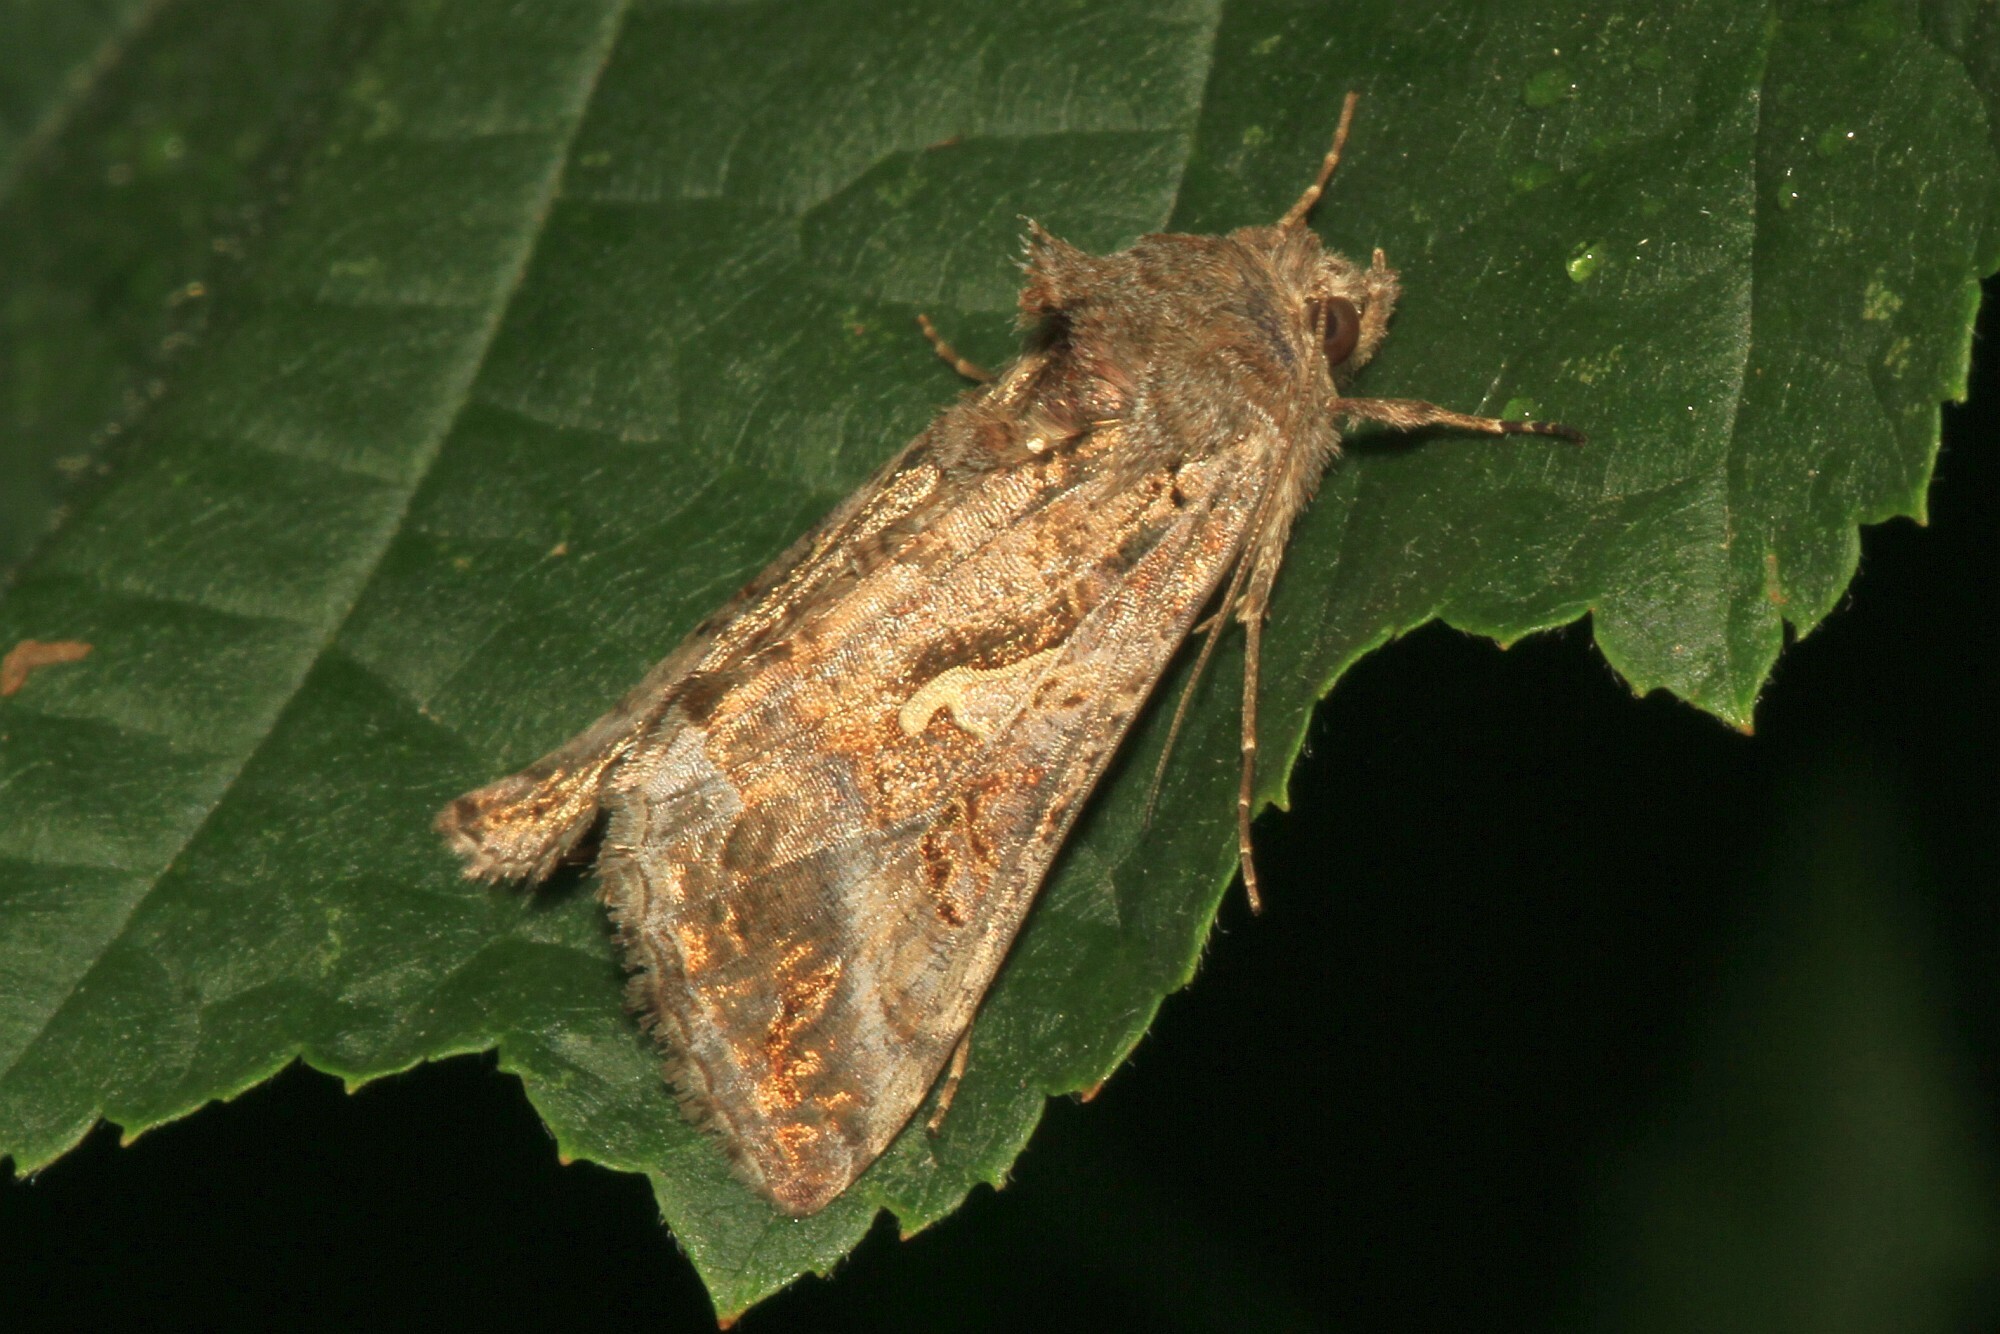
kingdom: Animalia
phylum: Arthropoda
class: Insecta
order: Lepidoptera
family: Noctuidae
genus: Autographa
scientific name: Autographa gamma
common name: Silver y
